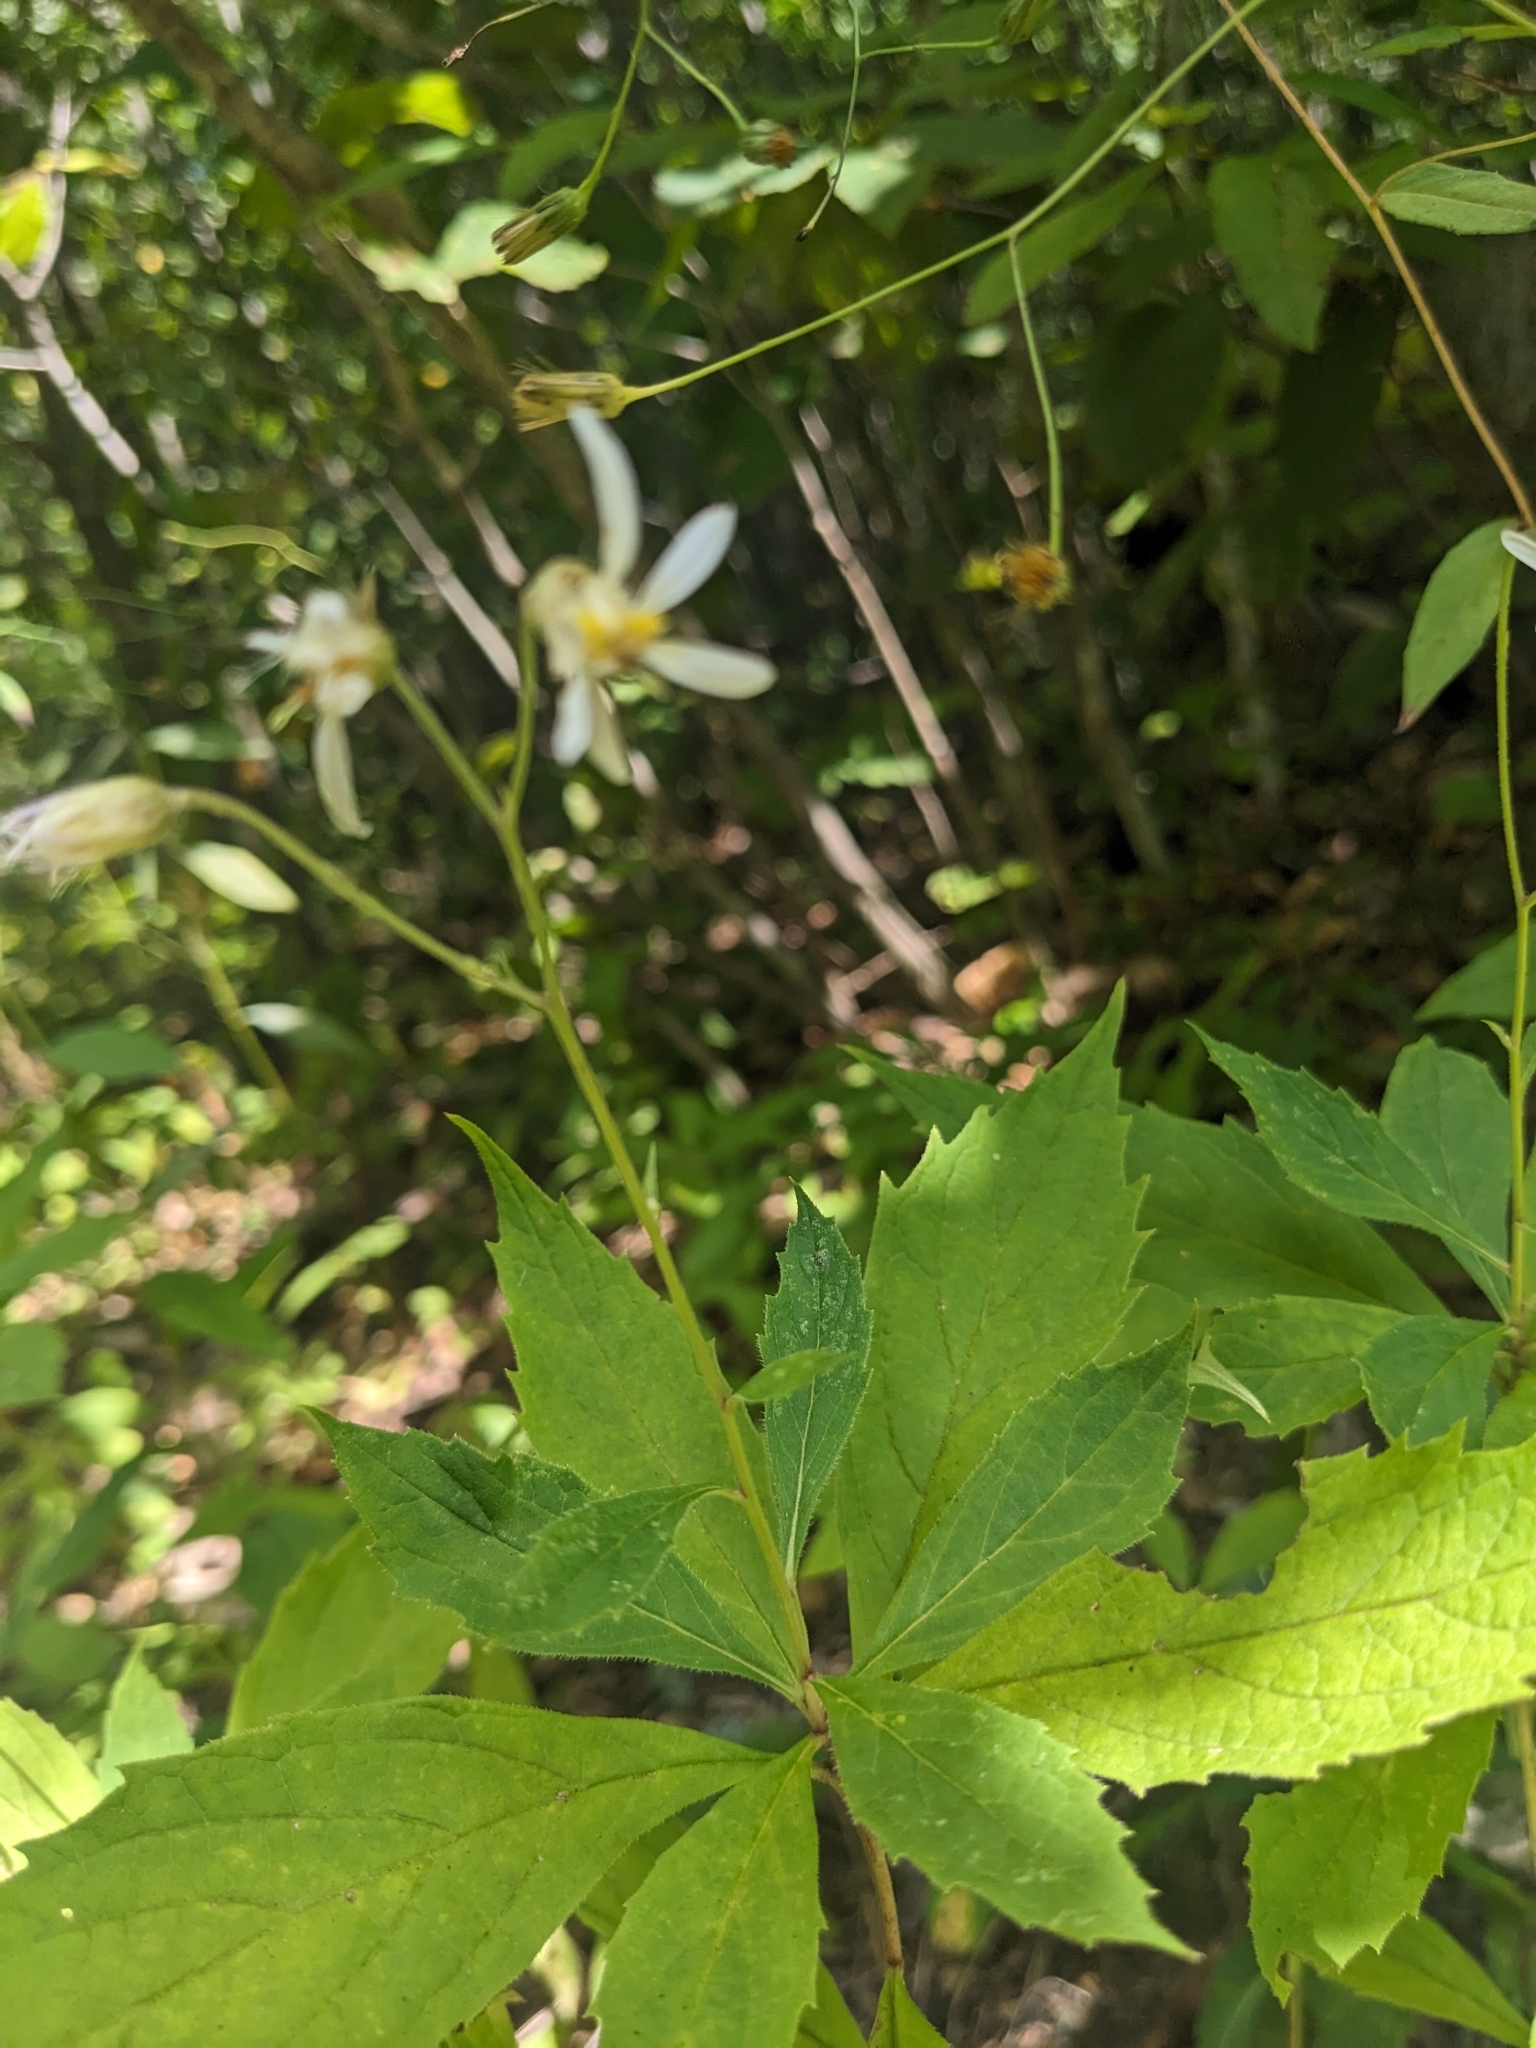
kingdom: Plantae
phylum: Tracheophyta
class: Magnoliopsida
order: Asterales
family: Asteraceae
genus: Oclemena
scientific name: Oclemena acuminata
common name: Mountain aster
